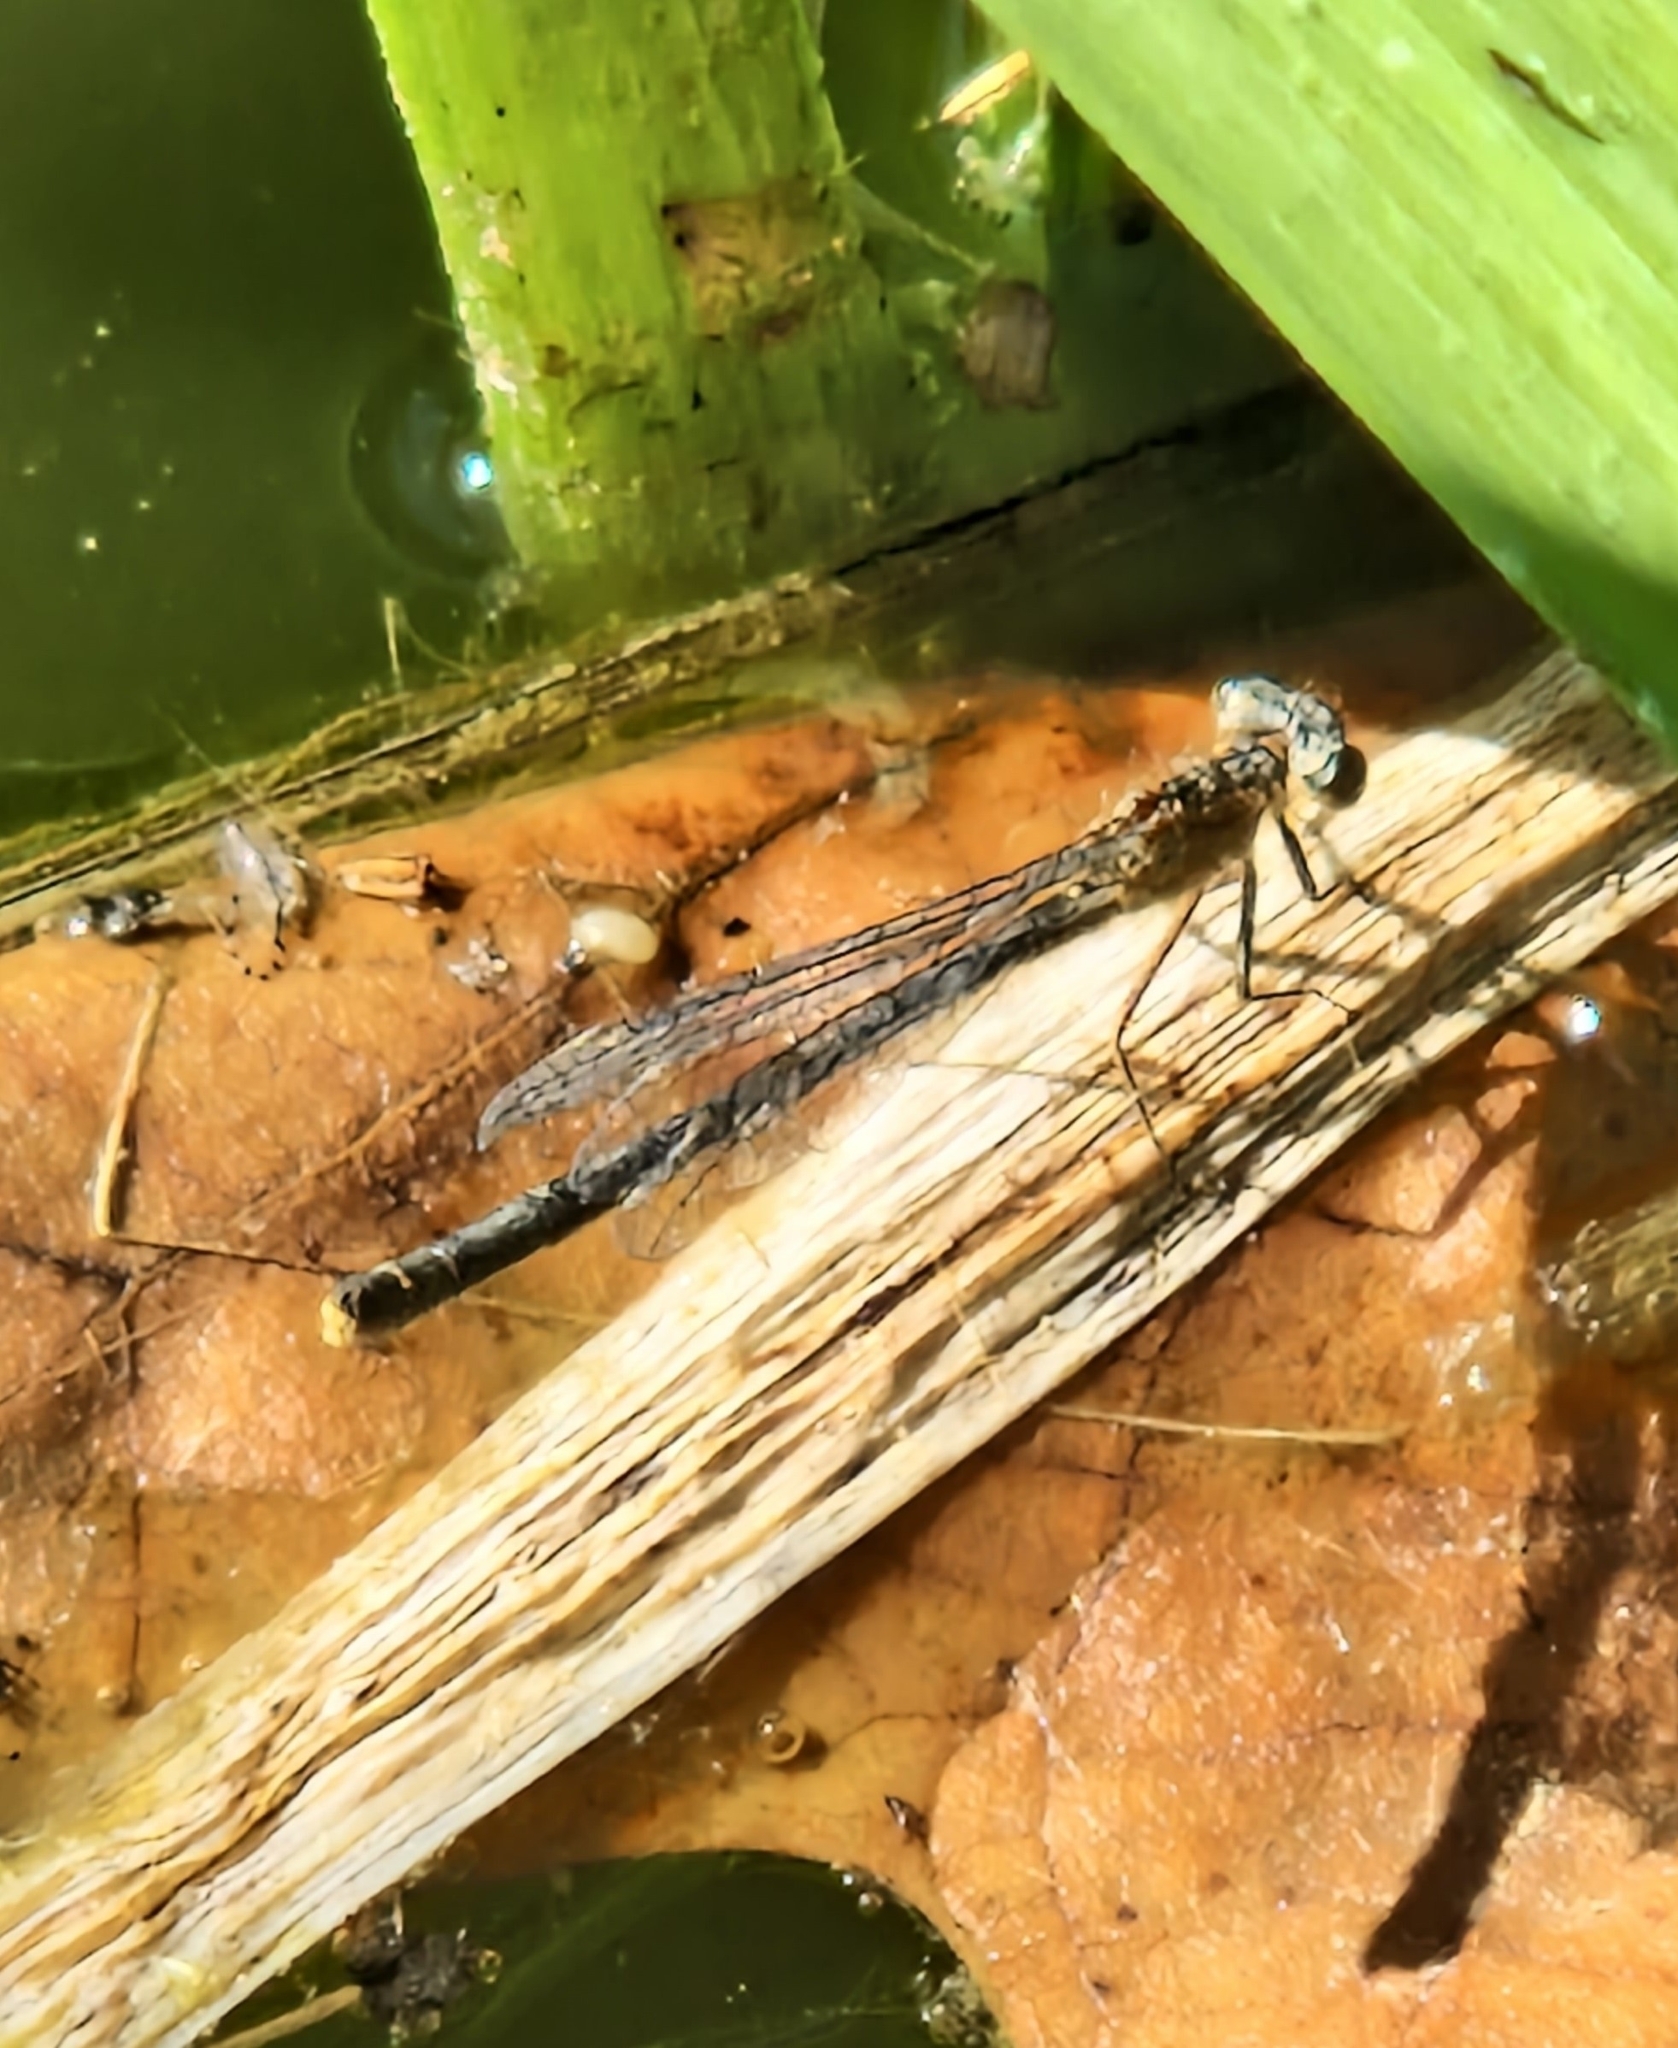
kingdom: Animalia
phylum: Arthropoda
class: Insecta
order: Odonata
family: Coenagrionidae
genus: Ischnura
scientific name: Ischnura elegans
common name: Blue-tailed damselfly
